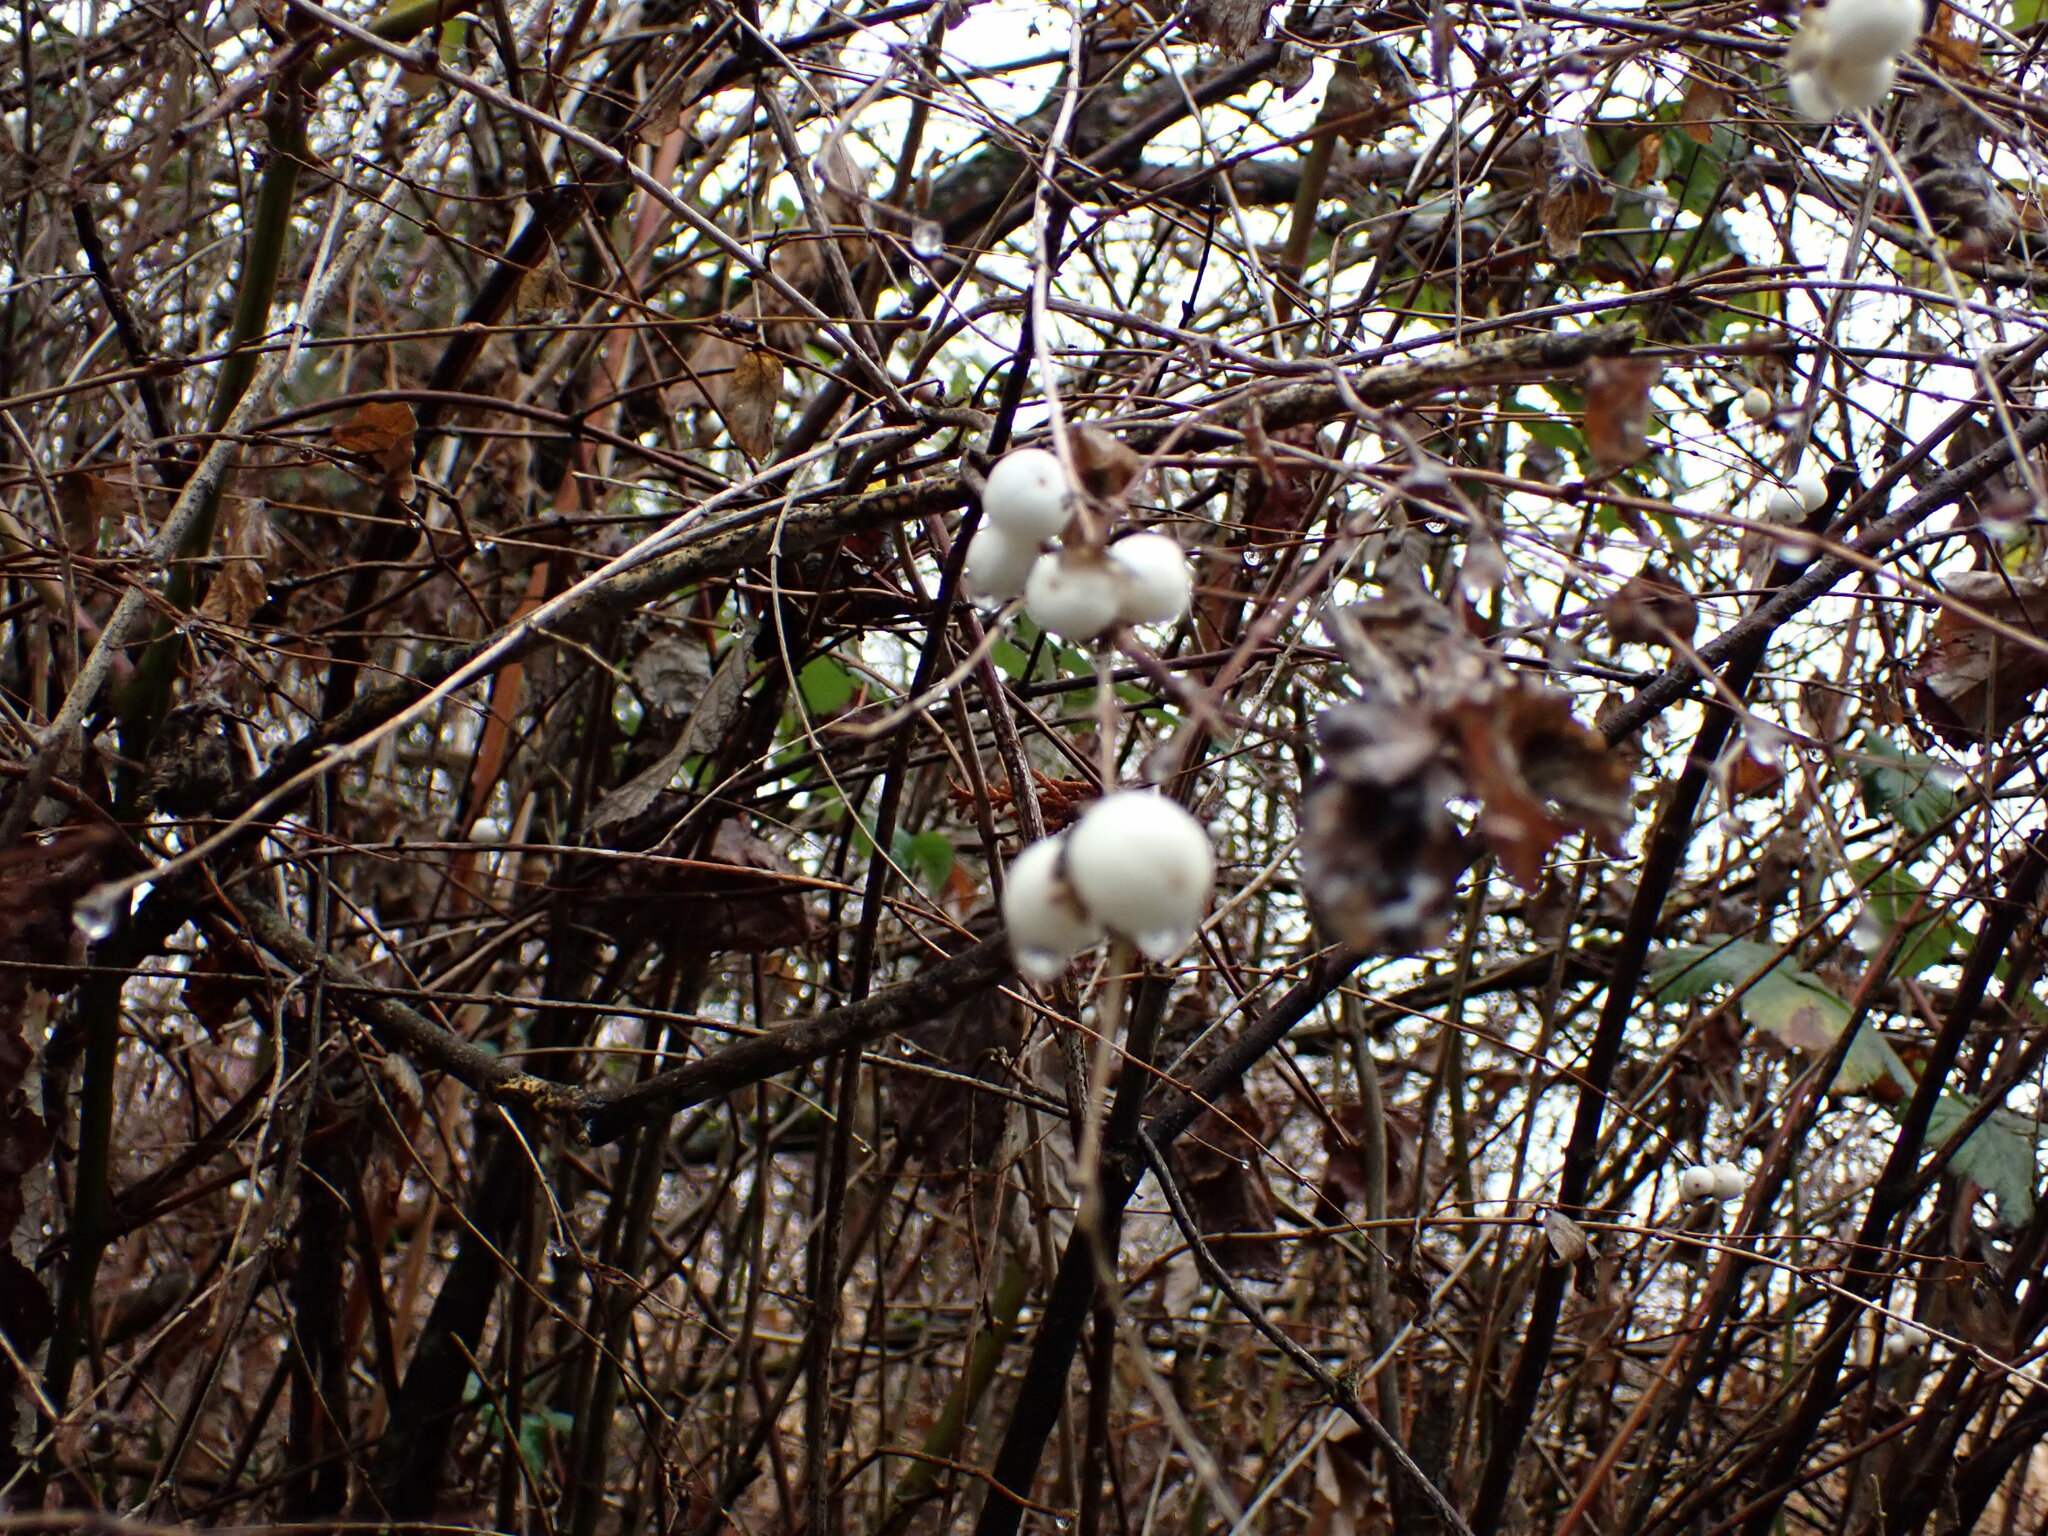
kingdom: Plantae
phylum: Tracheophyta
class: Magnoliopsida
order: Dipsacales
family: Caprifoliaceae
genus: Symphoricarpos
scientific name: Symphoricarpos albus
